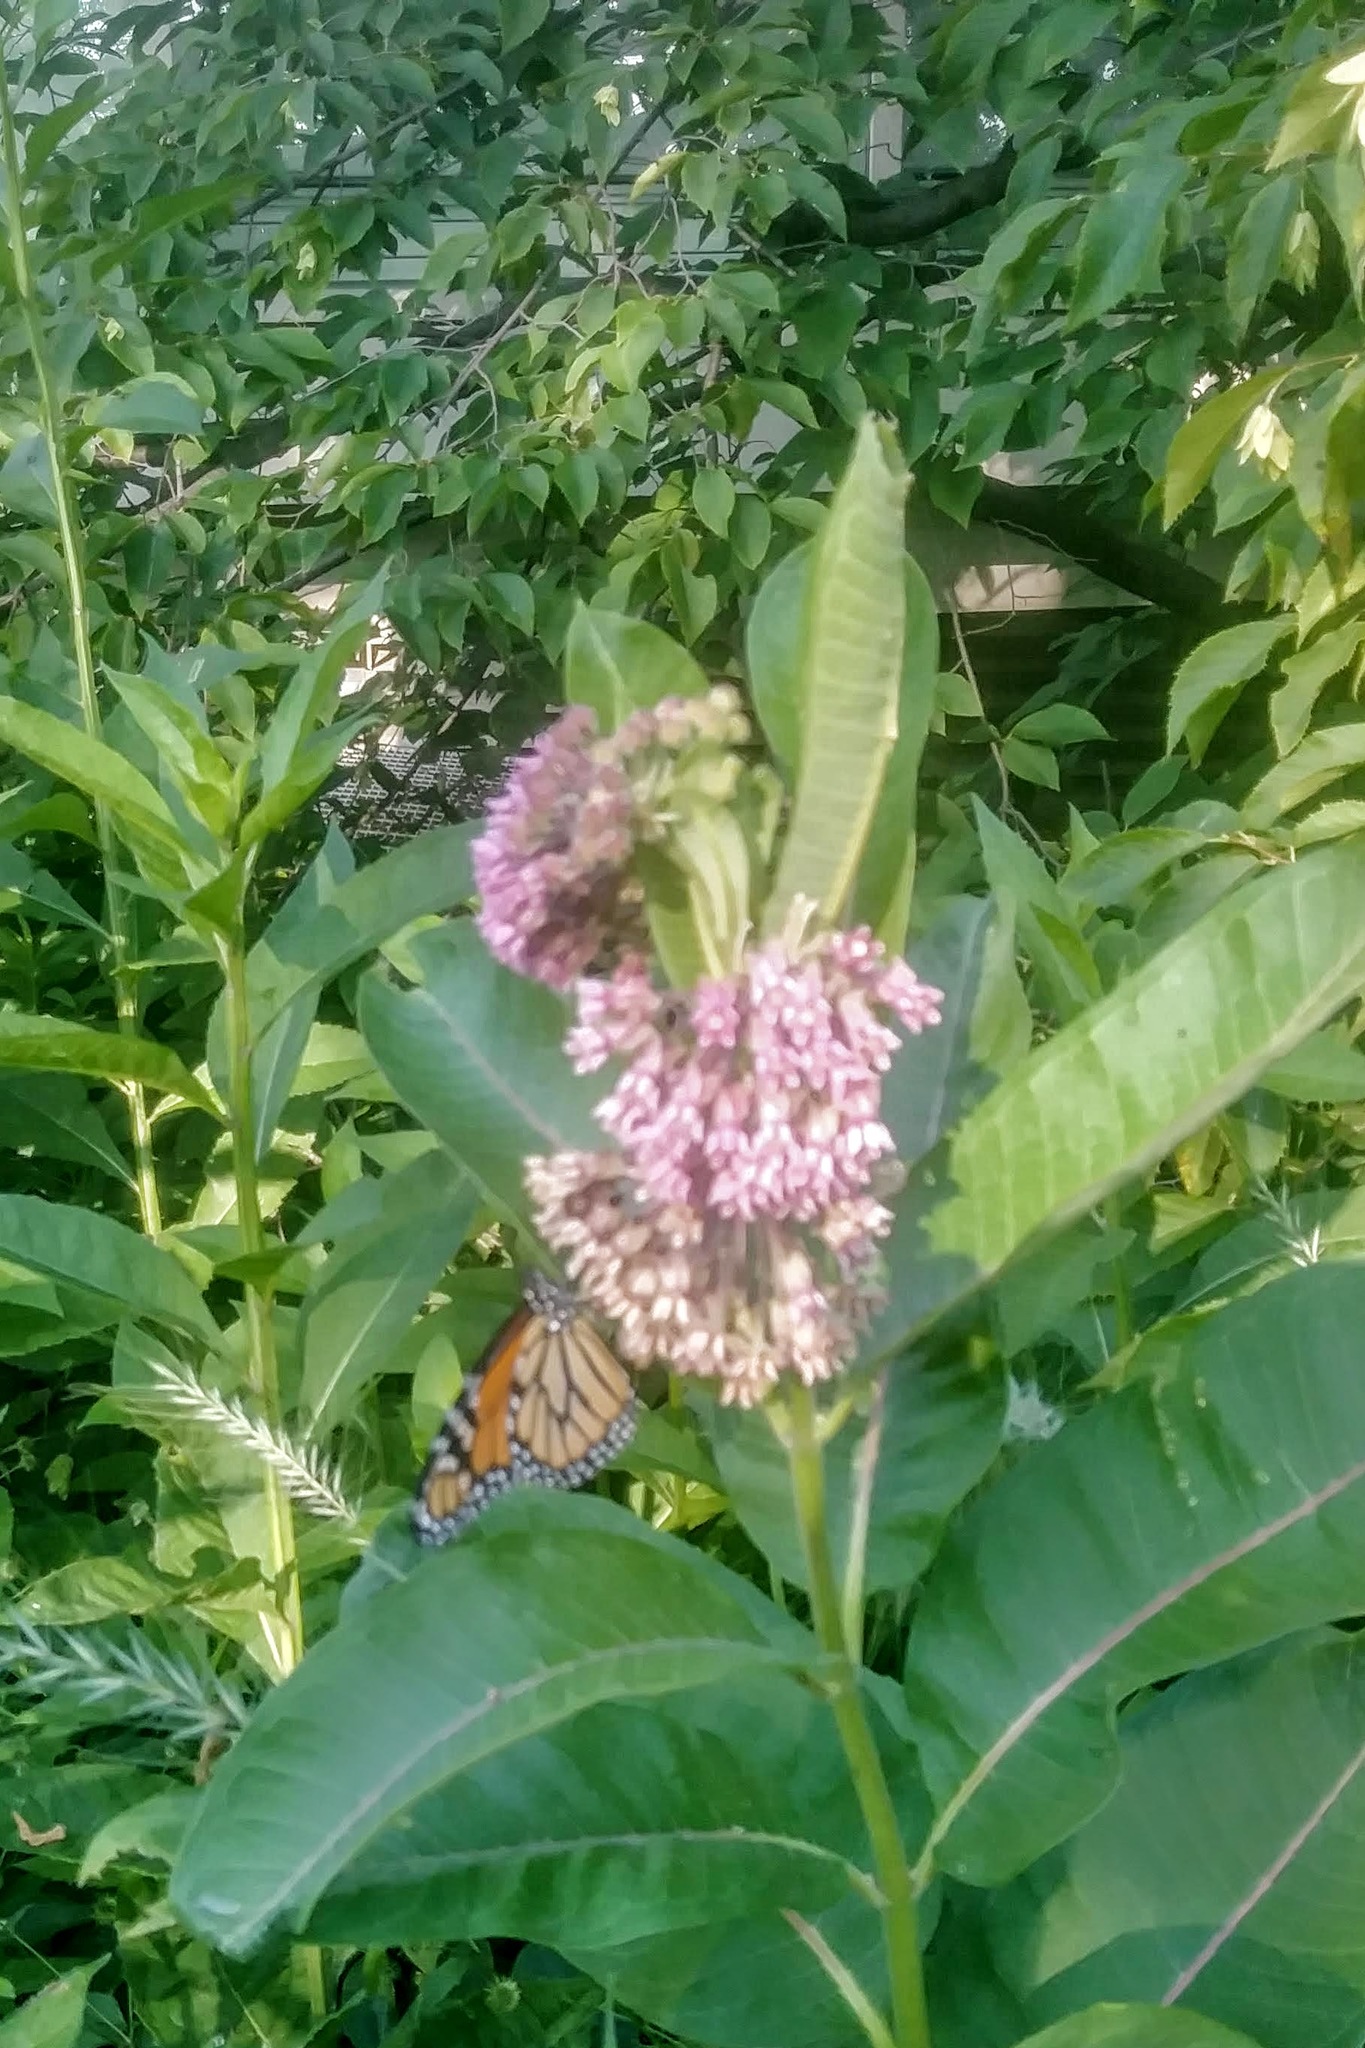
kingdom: Animalia
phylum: Arthropoda
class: Insecta
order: Lepidoptera
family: Nymphalidae
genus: Danaus
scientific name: Danaus plexippus
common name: Monarch
